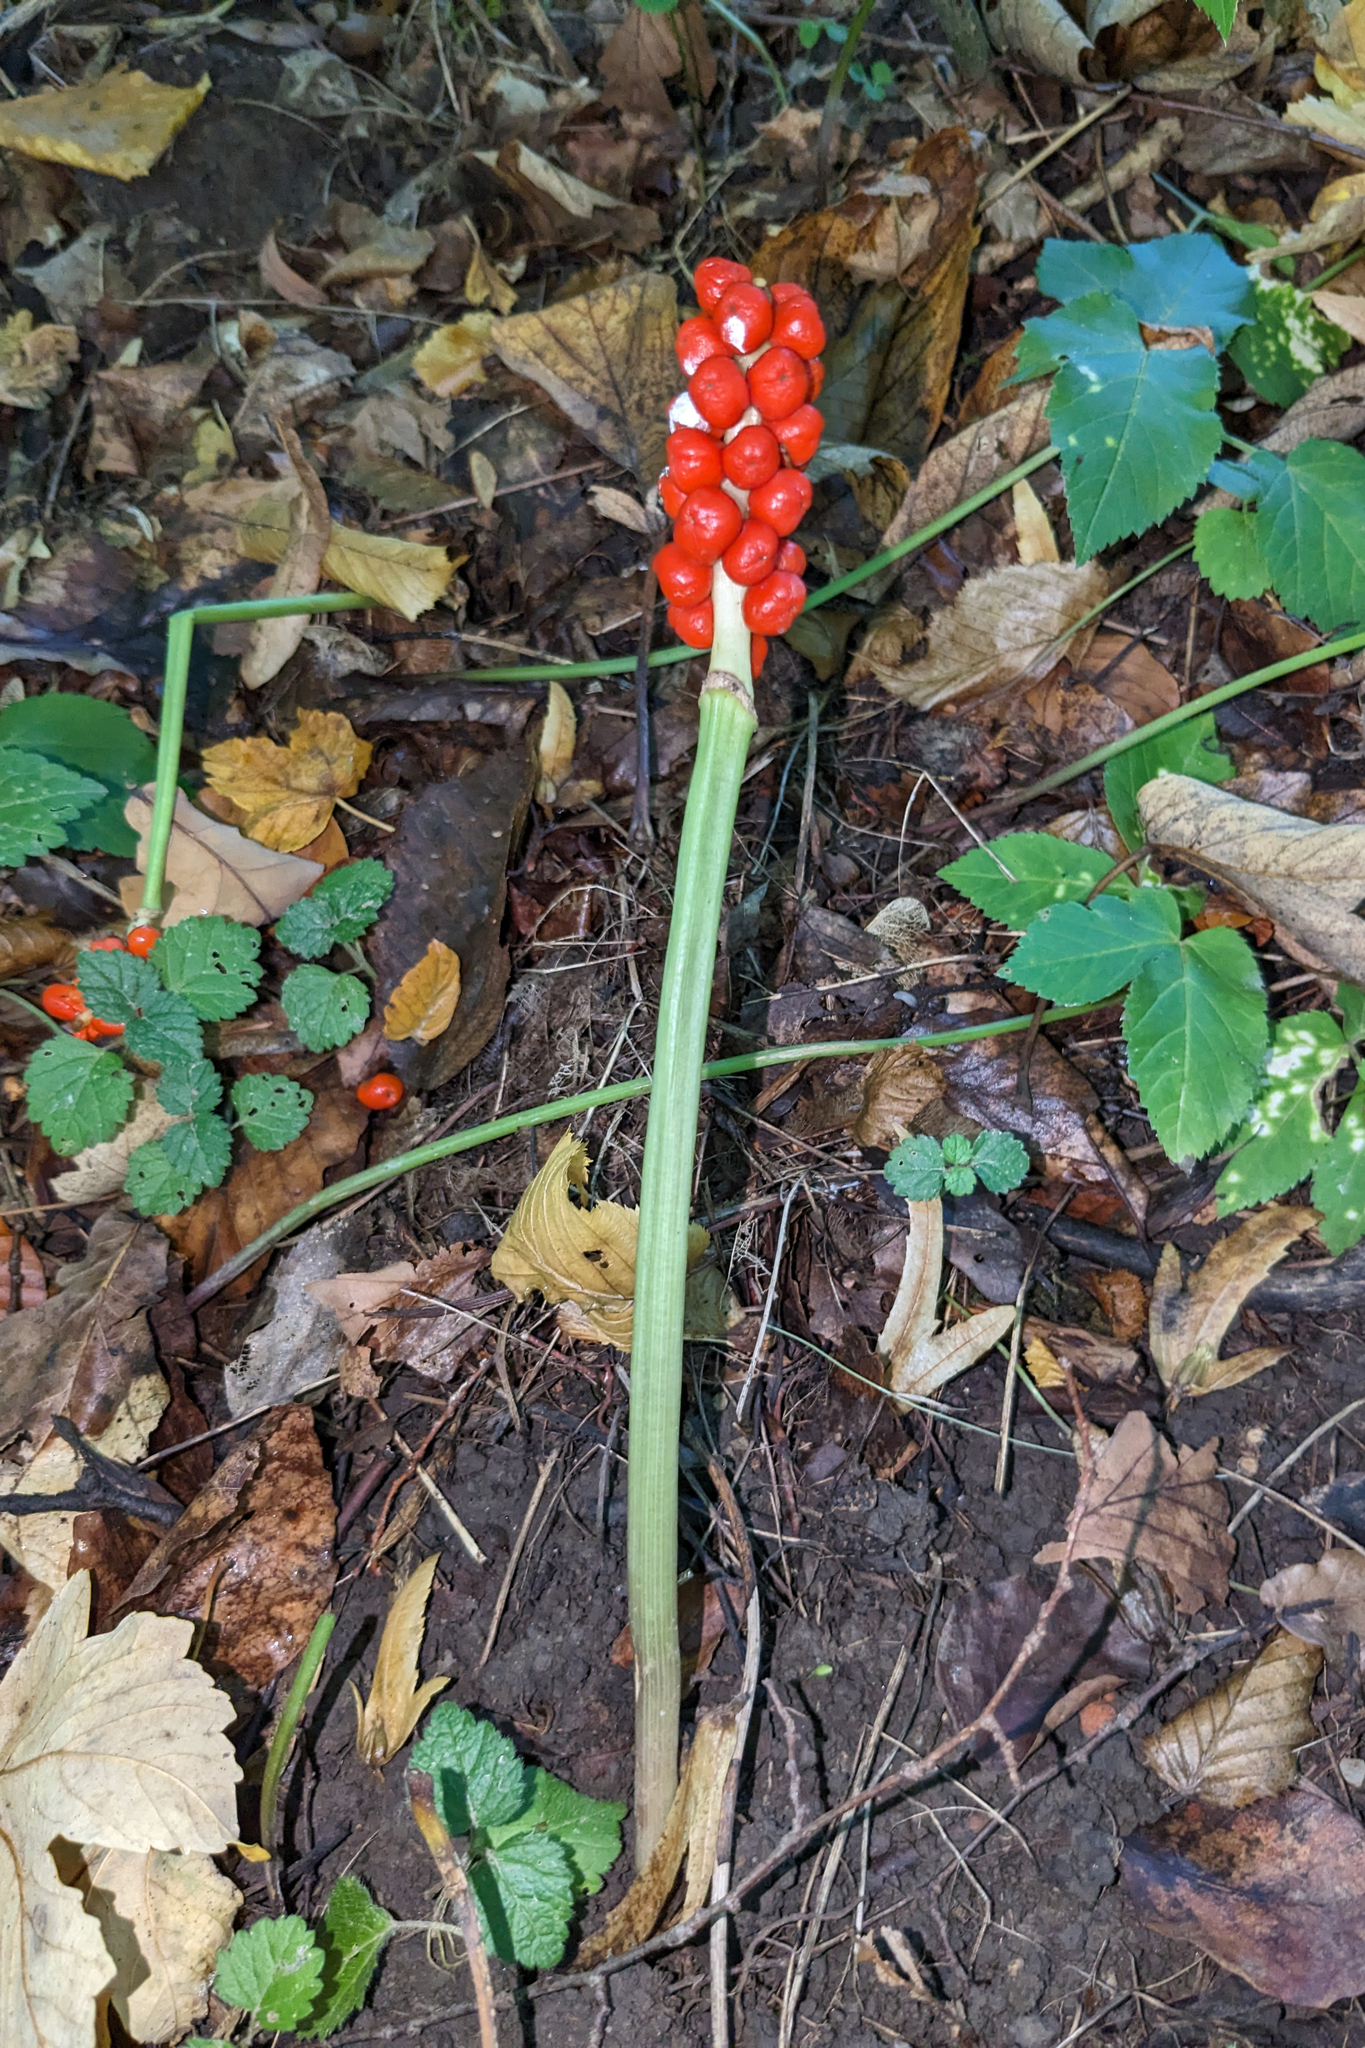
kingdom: Plantae
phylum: Tracheophyta
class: Liliopsida
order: Alismatales
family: Araceae
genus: Arum
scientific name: Arum maculatum
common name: Lords-and-ladies
